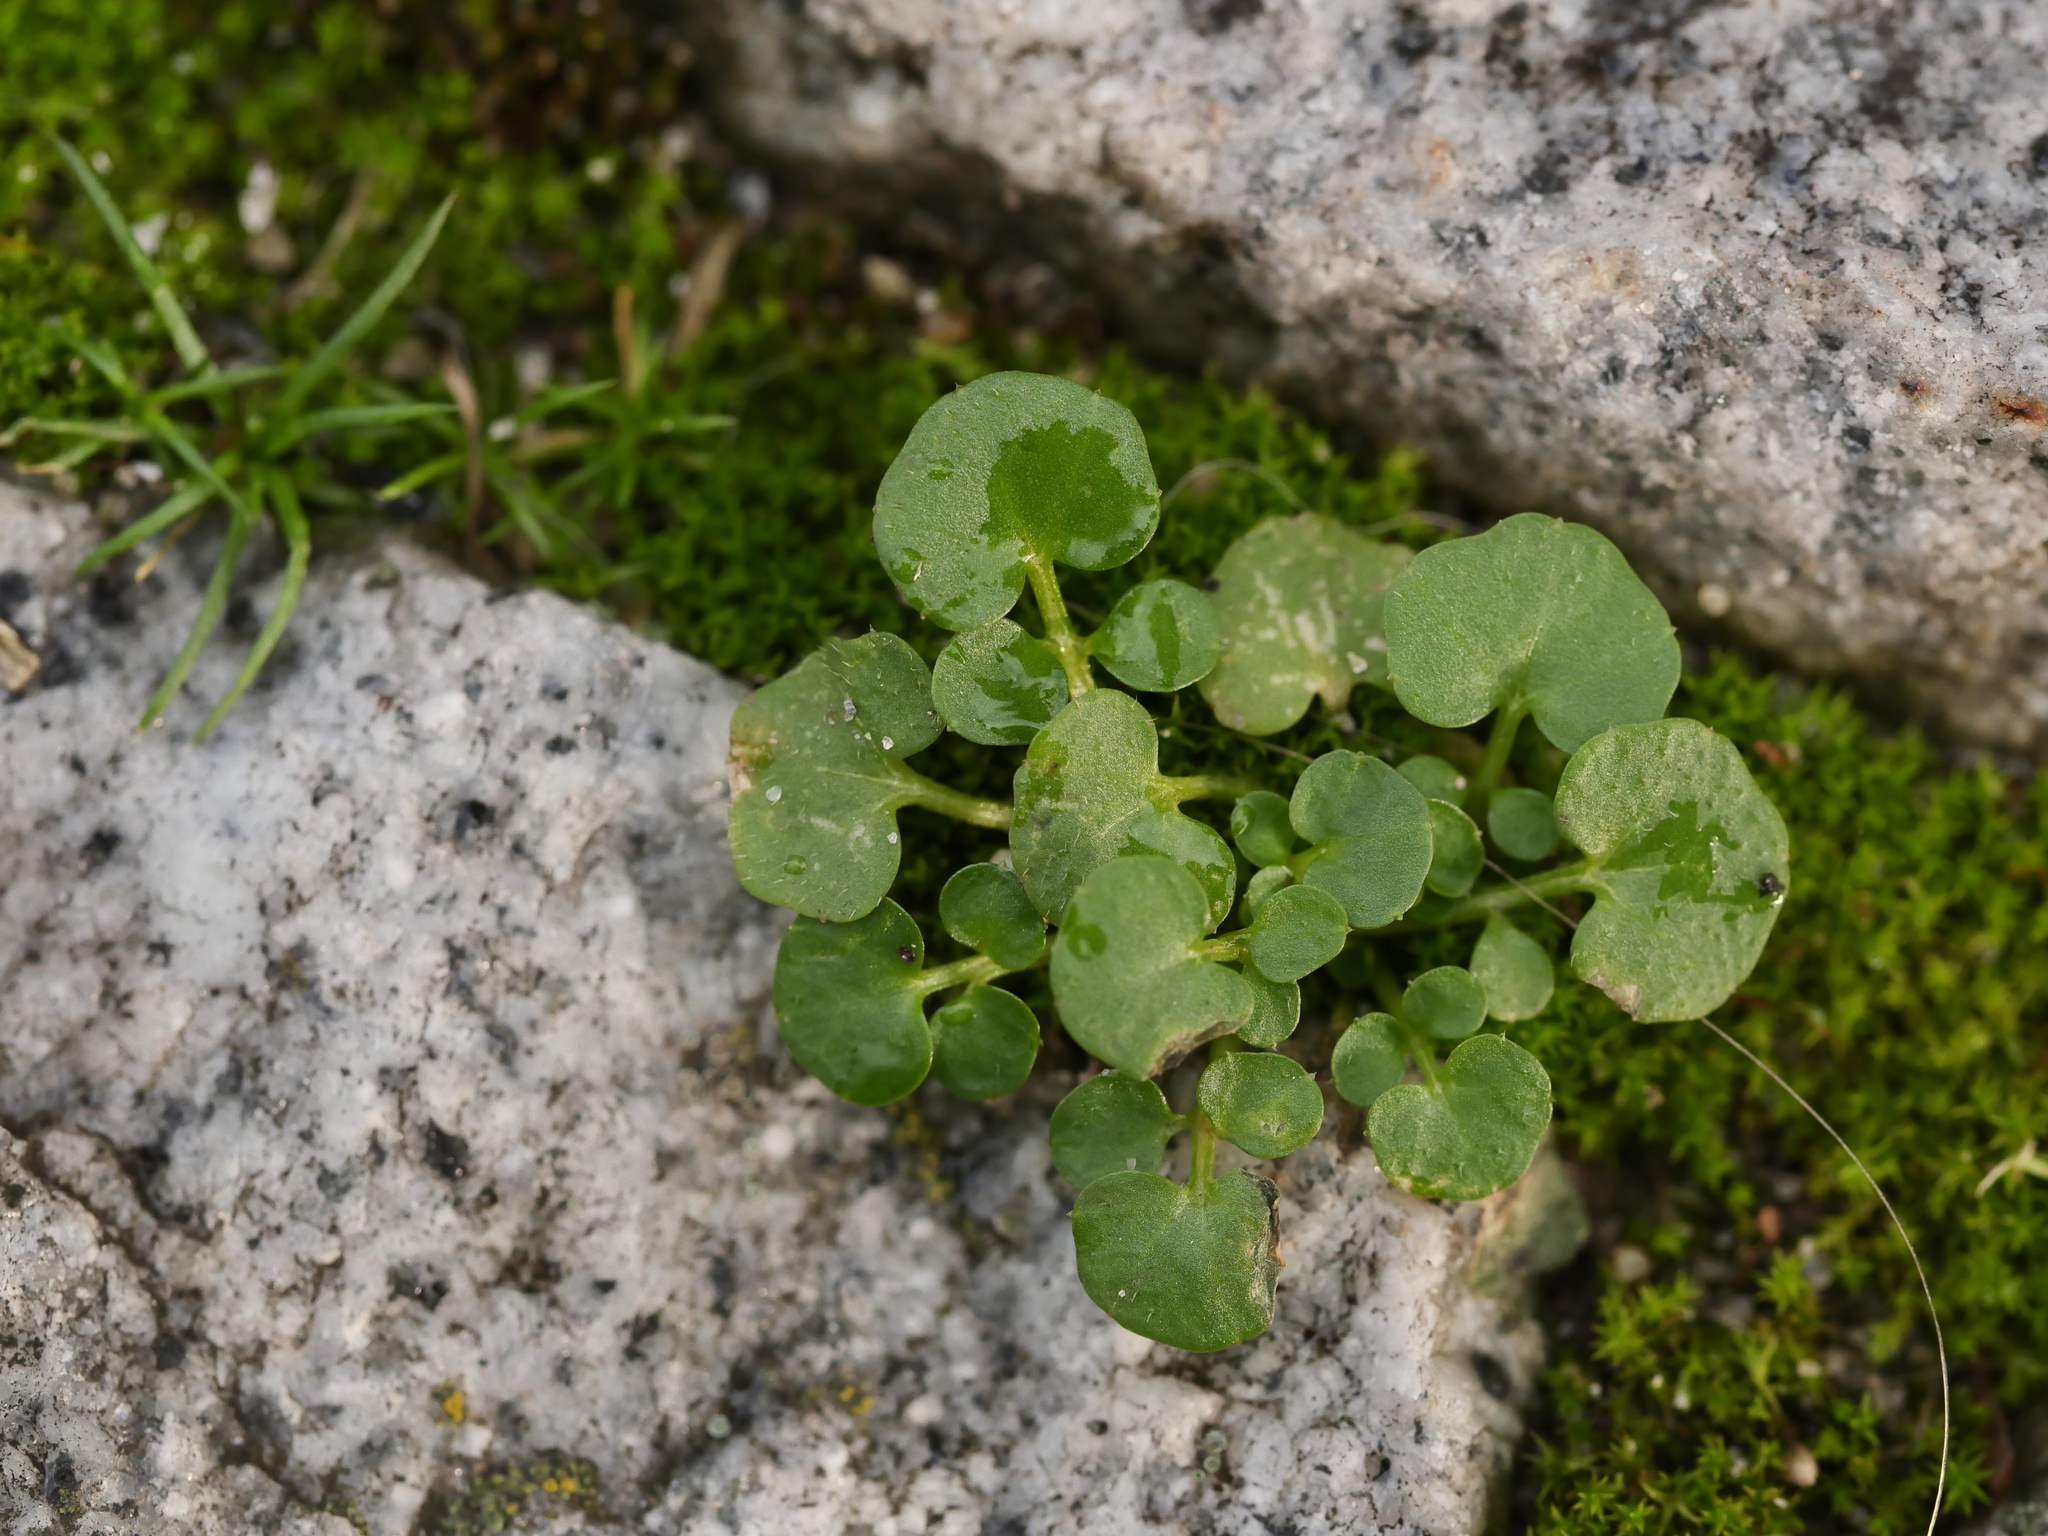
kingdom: Plantae
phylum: Tracheophyta
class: Magnoliopsida
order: Brassicales
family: Brassicaceae
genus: Cardamine
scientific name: Cardamine hirsuta
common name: Hairy bittercress
